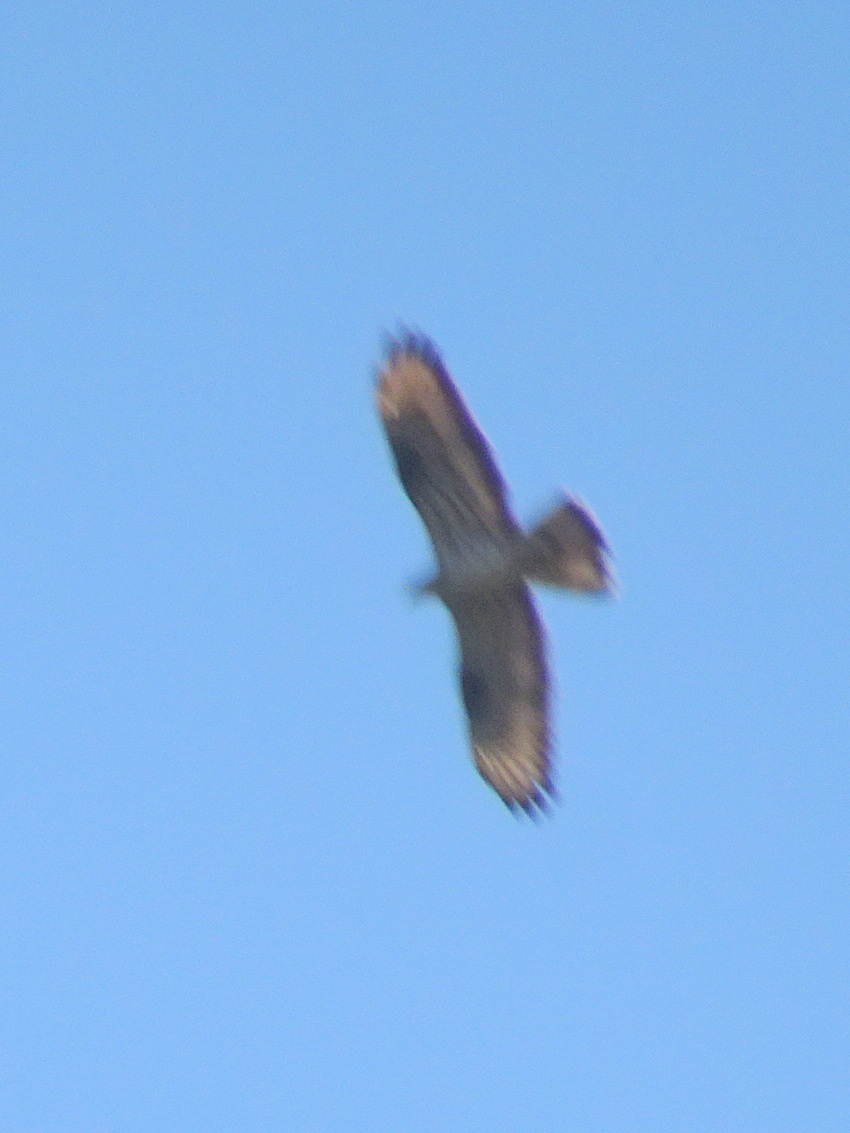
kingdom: Animalia
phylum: Chordata
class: Aves
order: Accipitriformes
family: Accipitridae
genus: Pernis
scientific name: Pernis apivorus
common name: European honey buzzard
